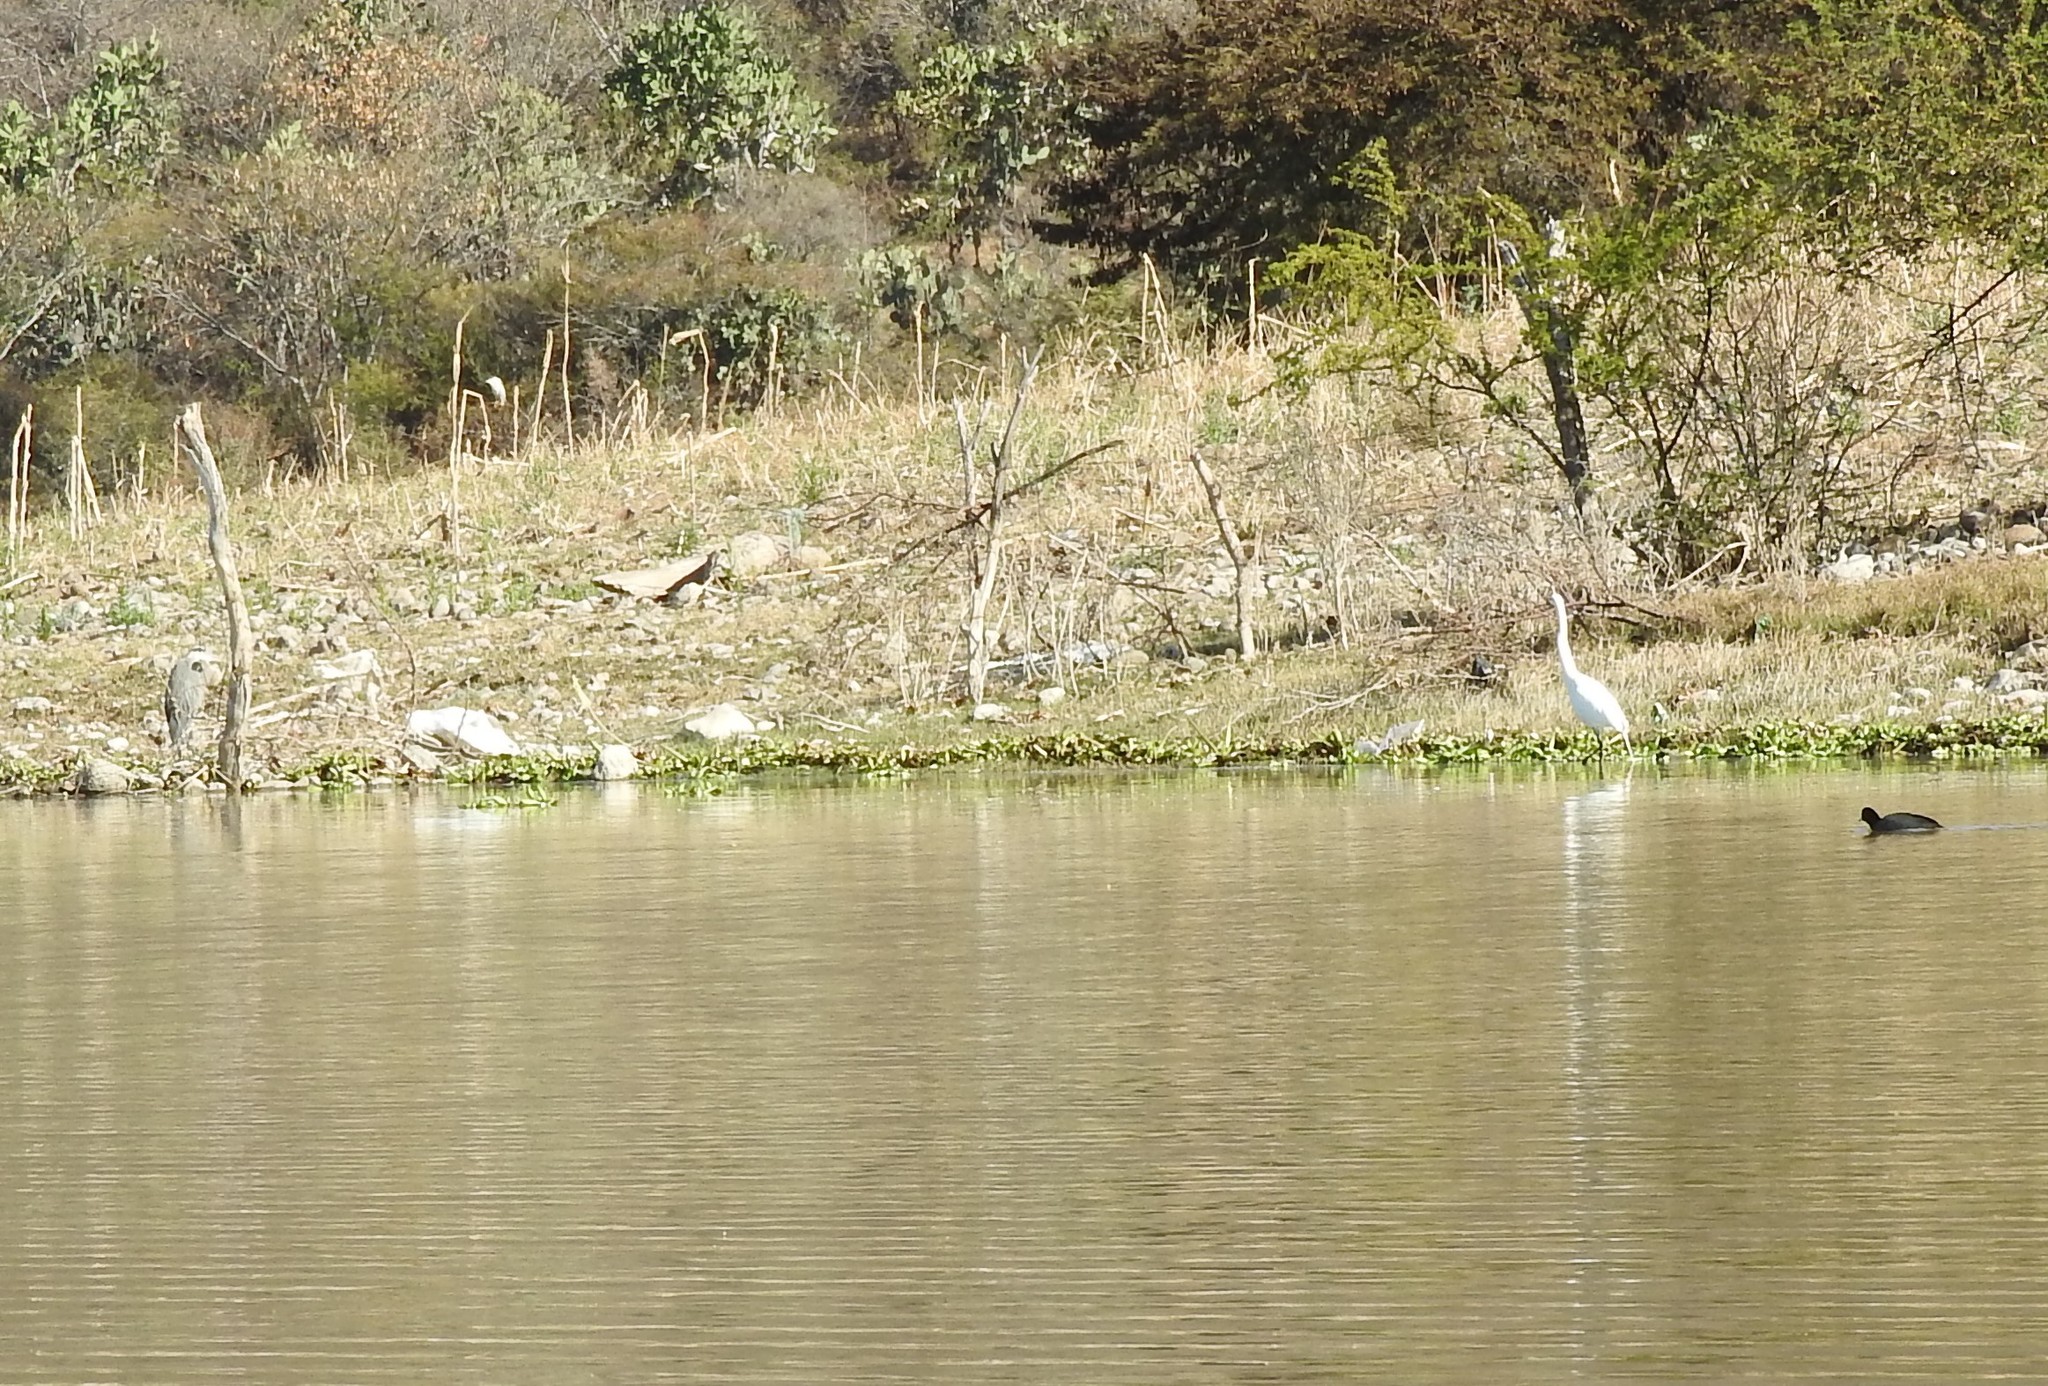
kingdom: Animalia
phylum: Chordata
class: Aves
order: Pelecaniformes
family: Ardeidae
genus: Ardea
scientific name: Ardea alba
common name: Great egret
